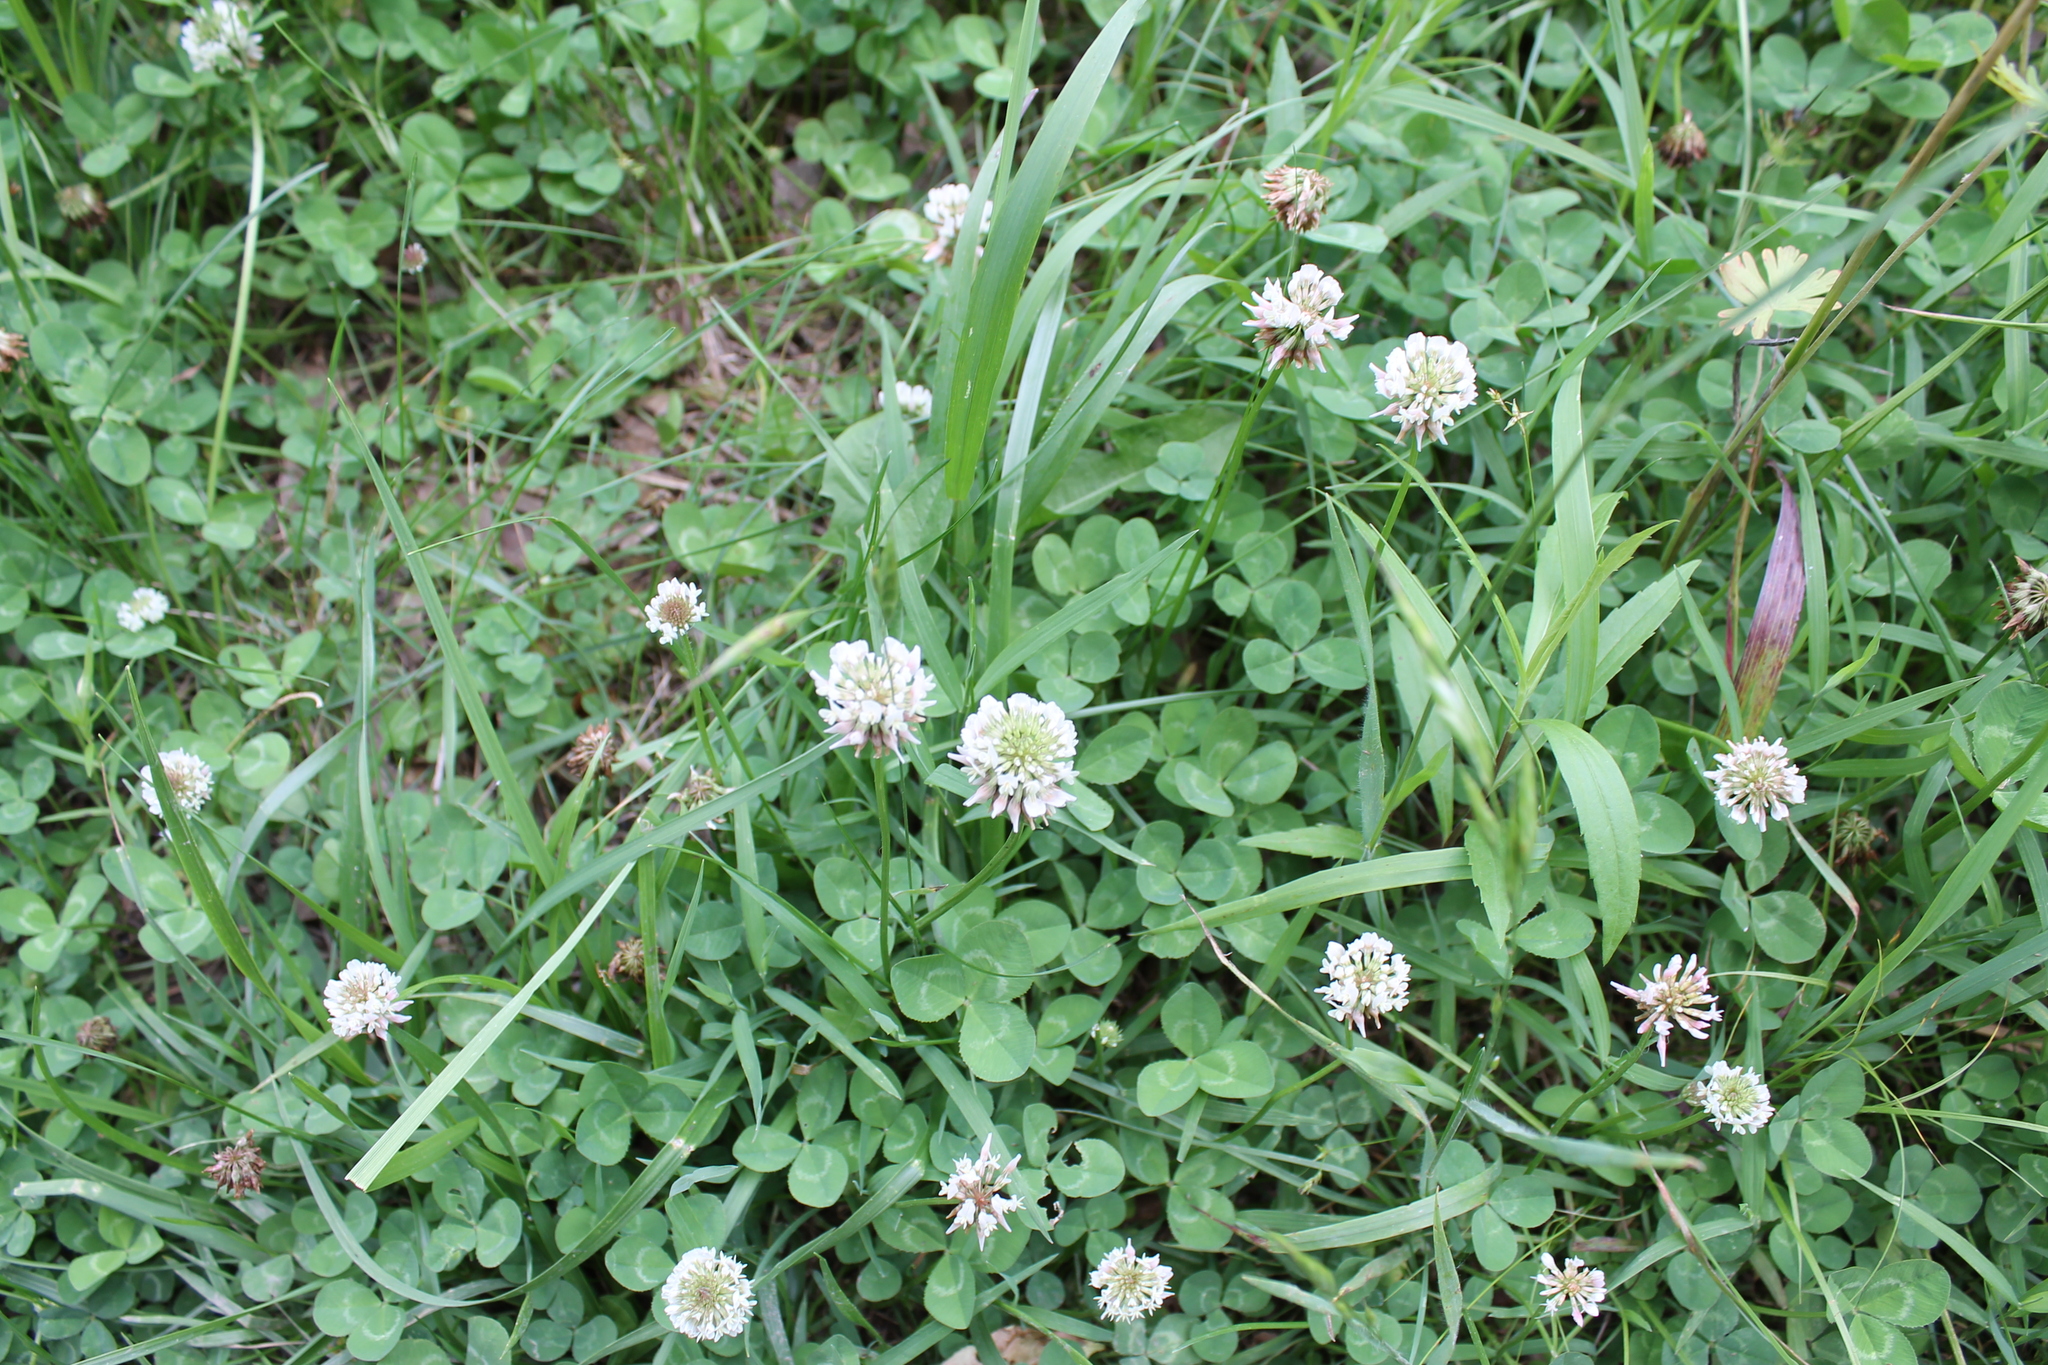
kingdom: Plantae
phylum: Tracheophyta
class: Magnoliopsida
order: Fabales
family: Fabaceae
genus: Trifolium
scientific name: Trifolium repens
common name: White clover
